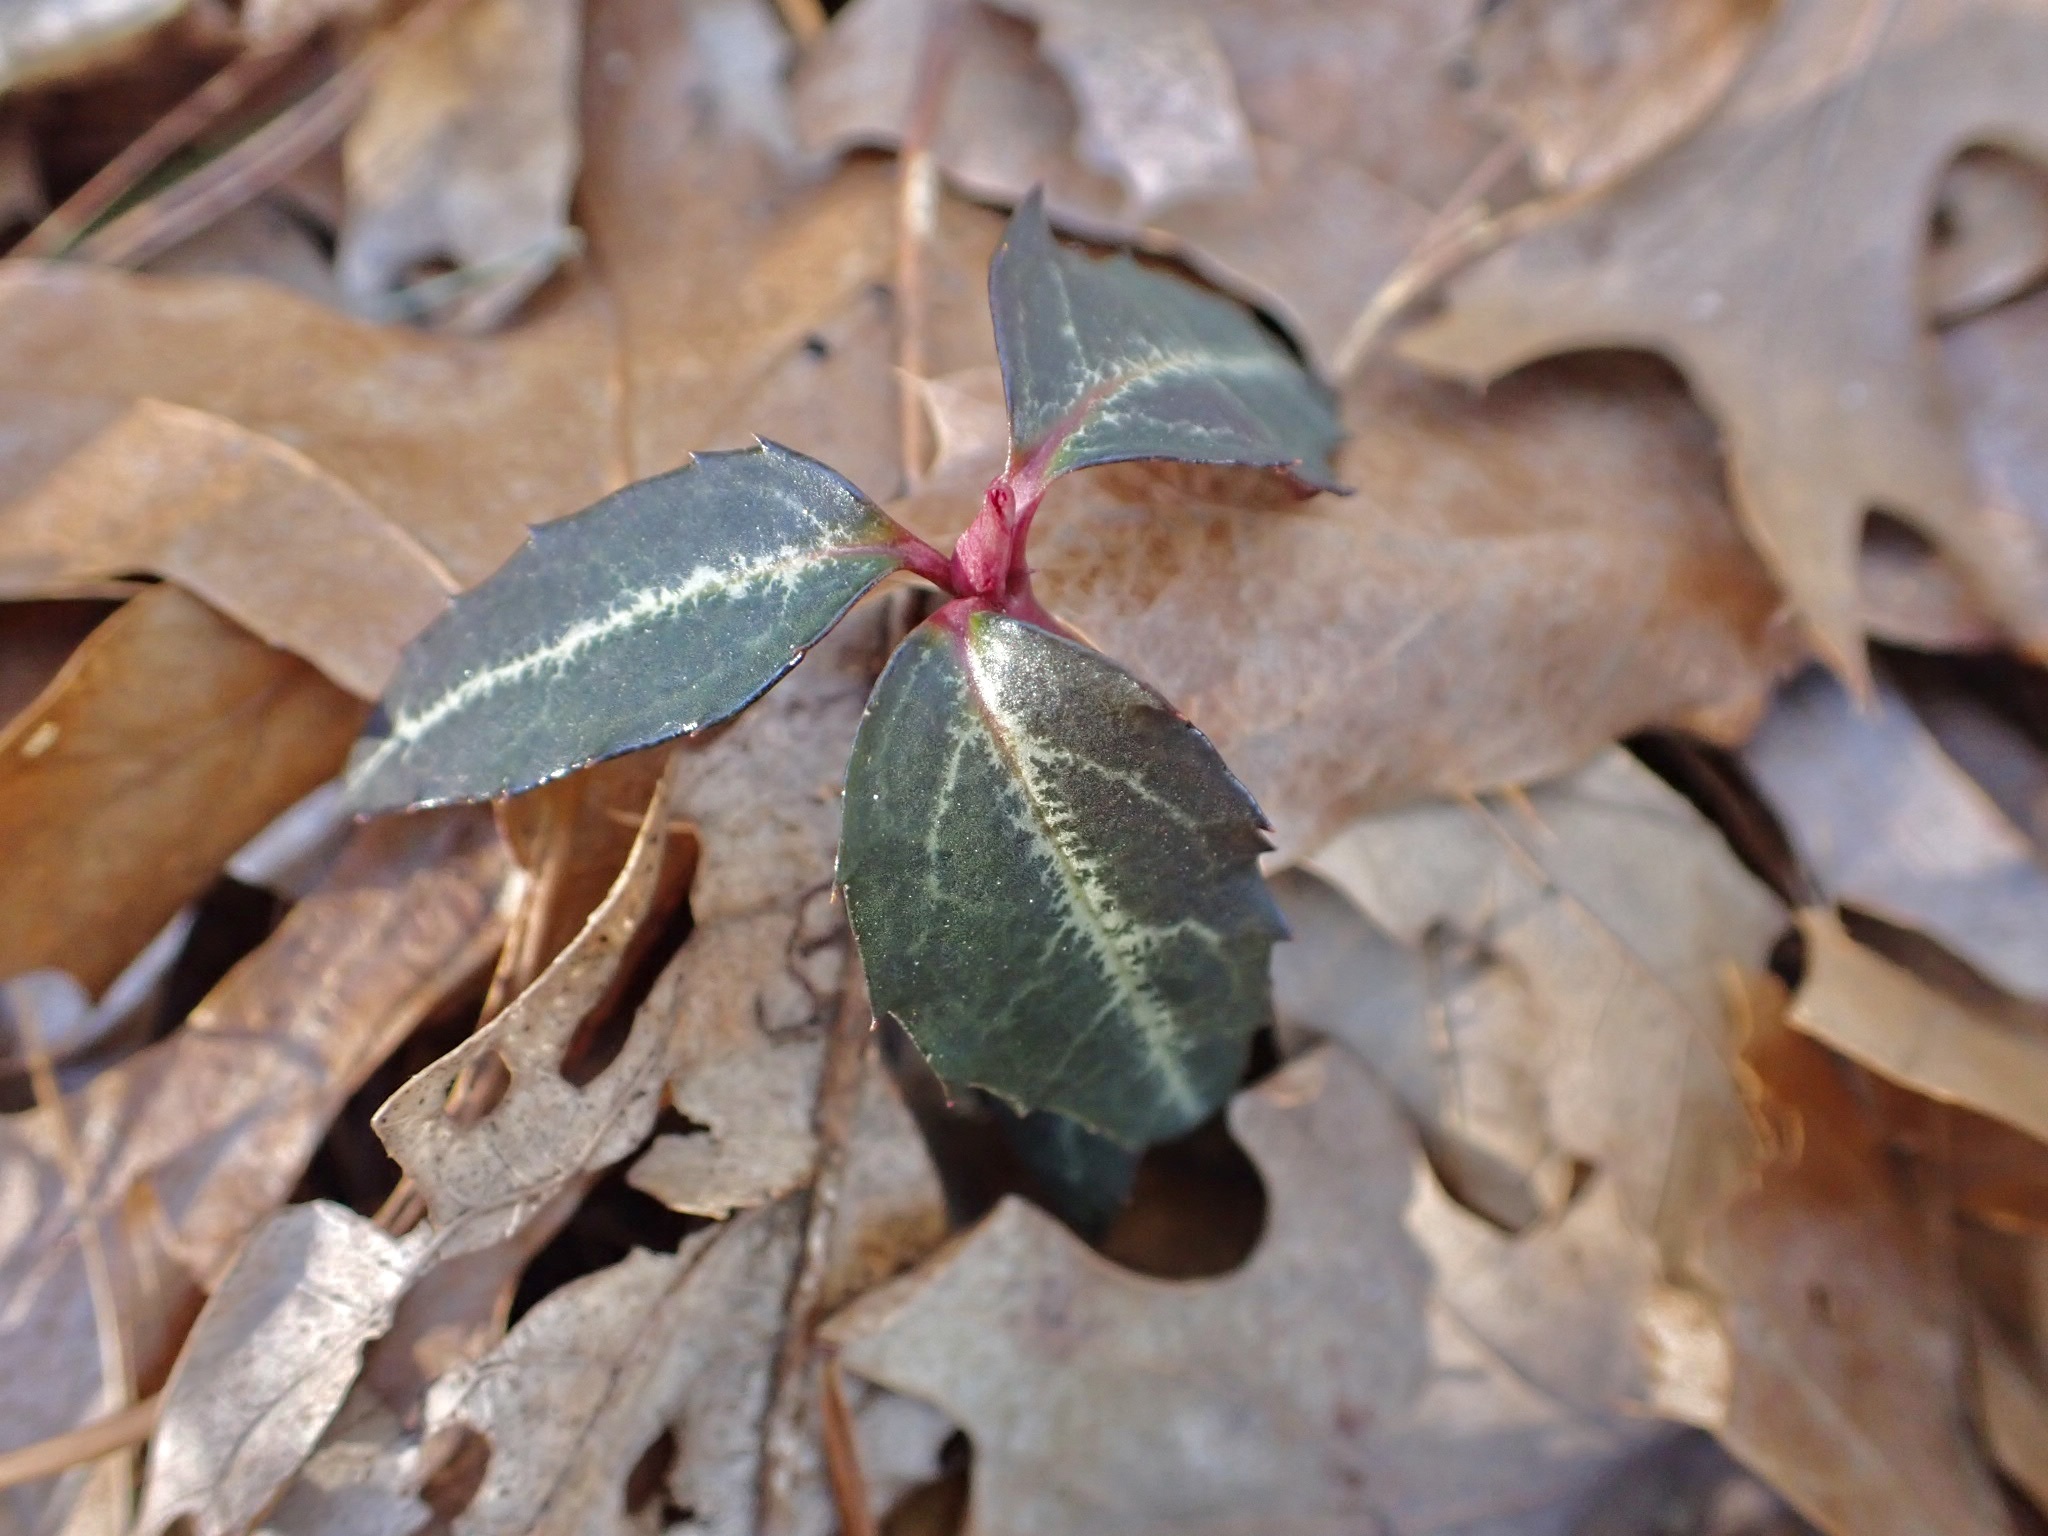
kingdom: Plantae
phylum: Tracheophyta
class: Magnoliopsida
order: Ericales
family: Ericaceae
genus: Chimaphila
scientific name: Chimaphila maculata
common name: Spotted pipsissewa
